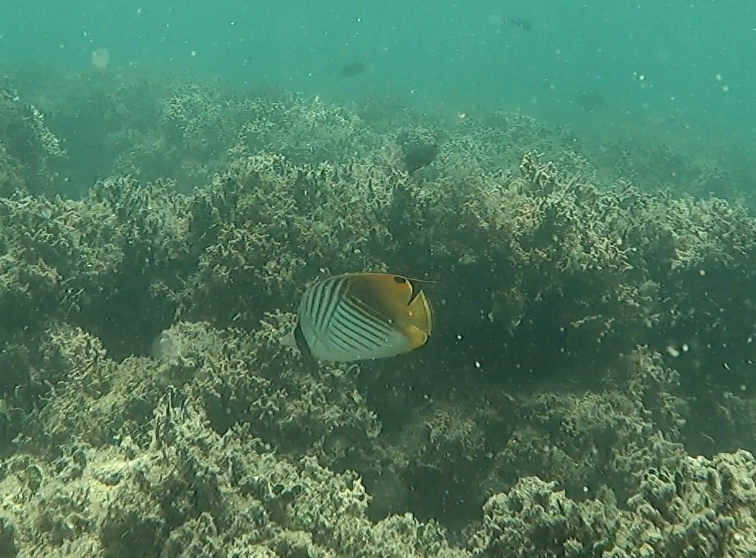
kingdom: Animalia
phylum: Chordata
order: Perciformes
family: Chaetodontidae
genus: Chaetodon
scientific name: Chaetodon auriga
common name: Threadfin butterflyfish
